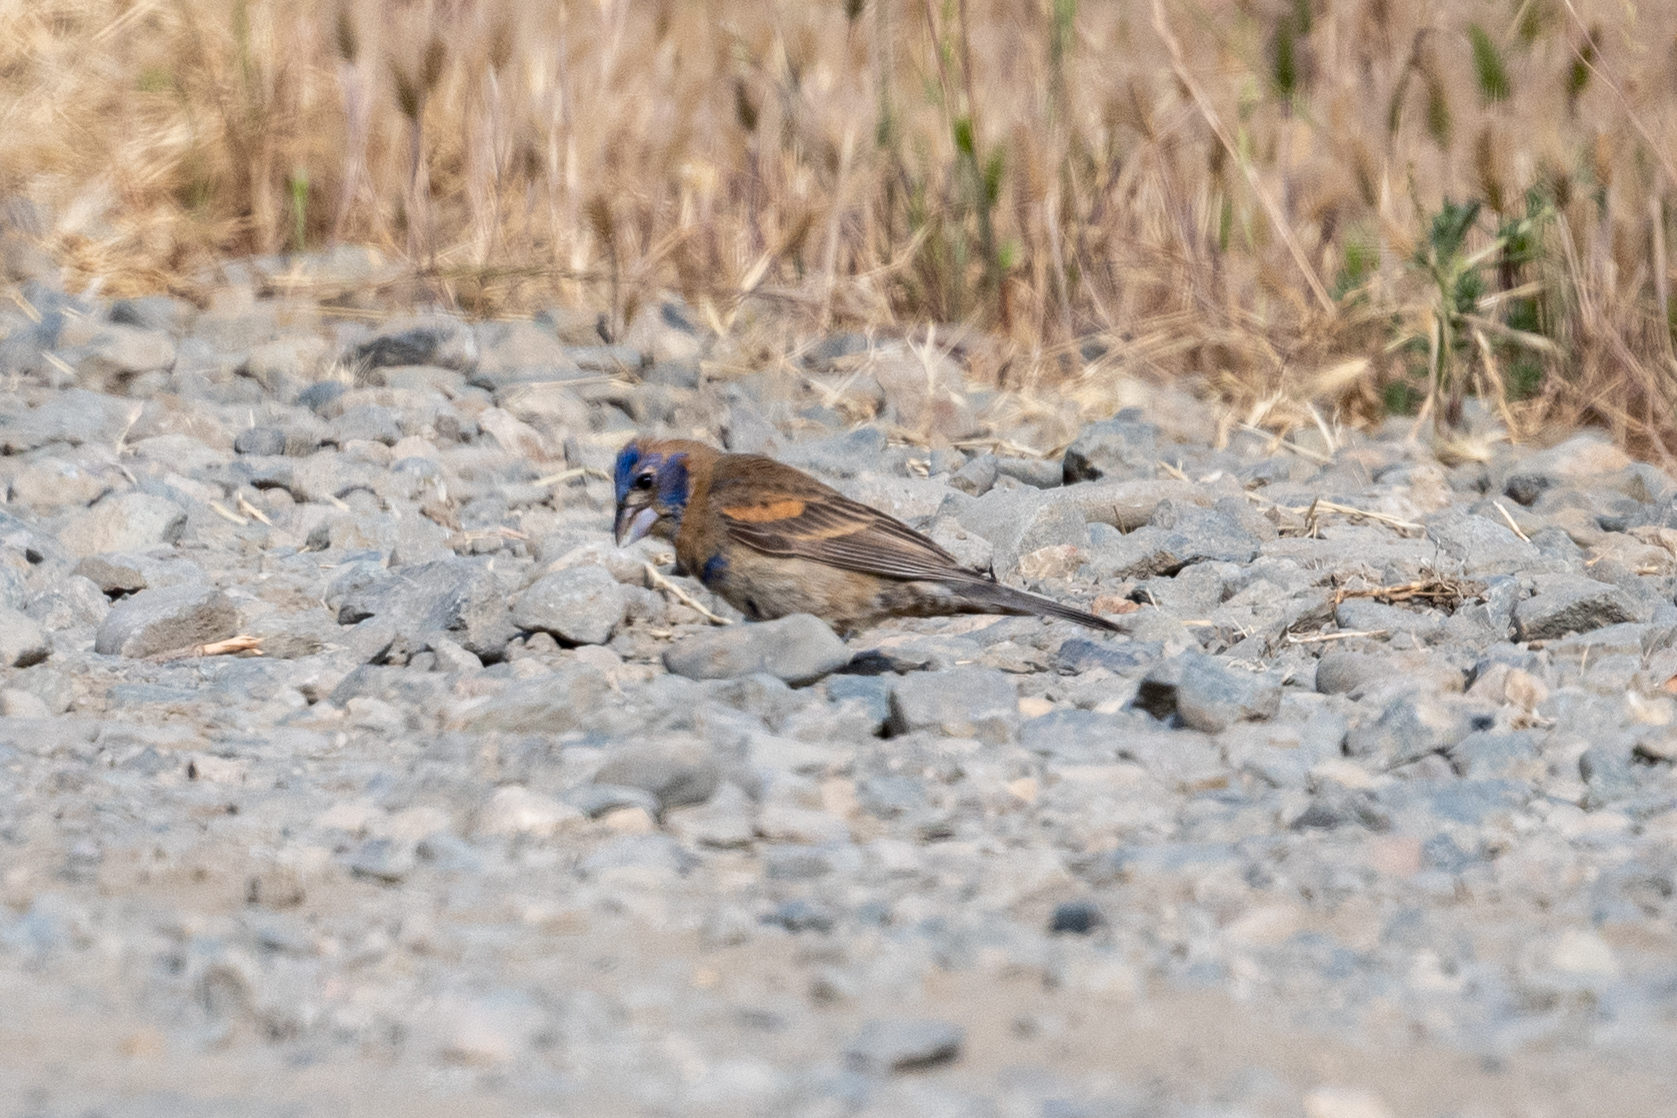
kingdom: Animalia
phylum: Chordata
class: Aves
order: Passeriformes
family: Cardinalidae
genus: Passerina
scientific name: Passerina caerulea
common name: Blue grosbeak
